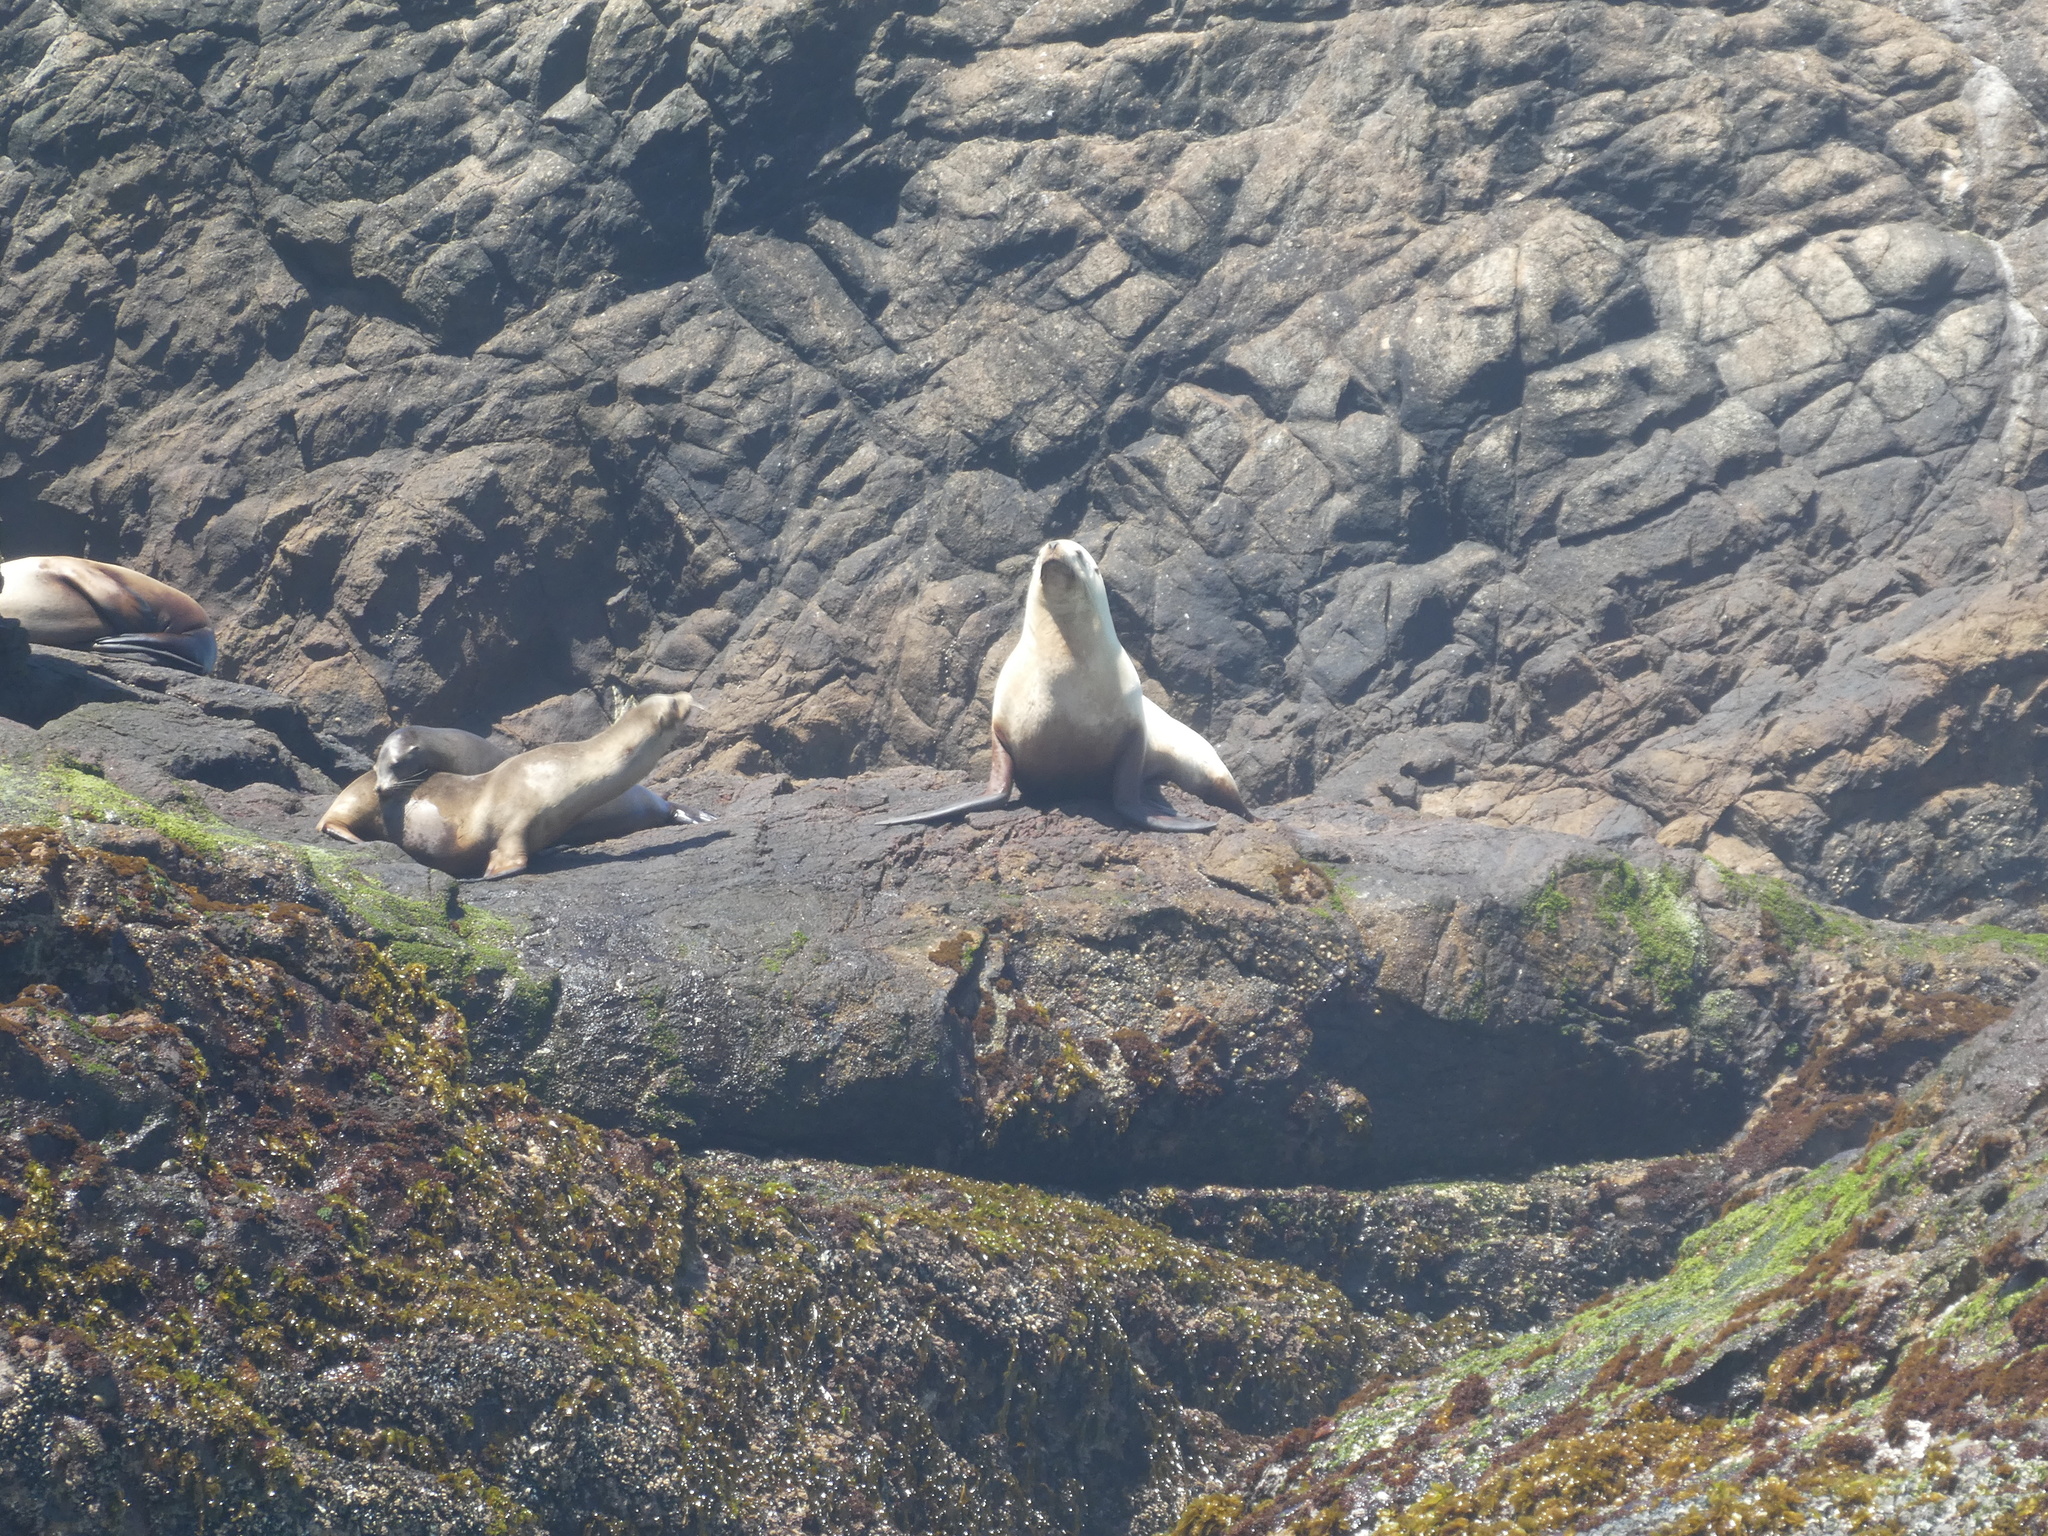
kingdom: Animalia
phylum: Chordata
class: Mammalia
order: Carnivora
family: Otariidae
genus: Eumetopias
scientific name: Eumetopias jubatus
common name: Steller sea lion
